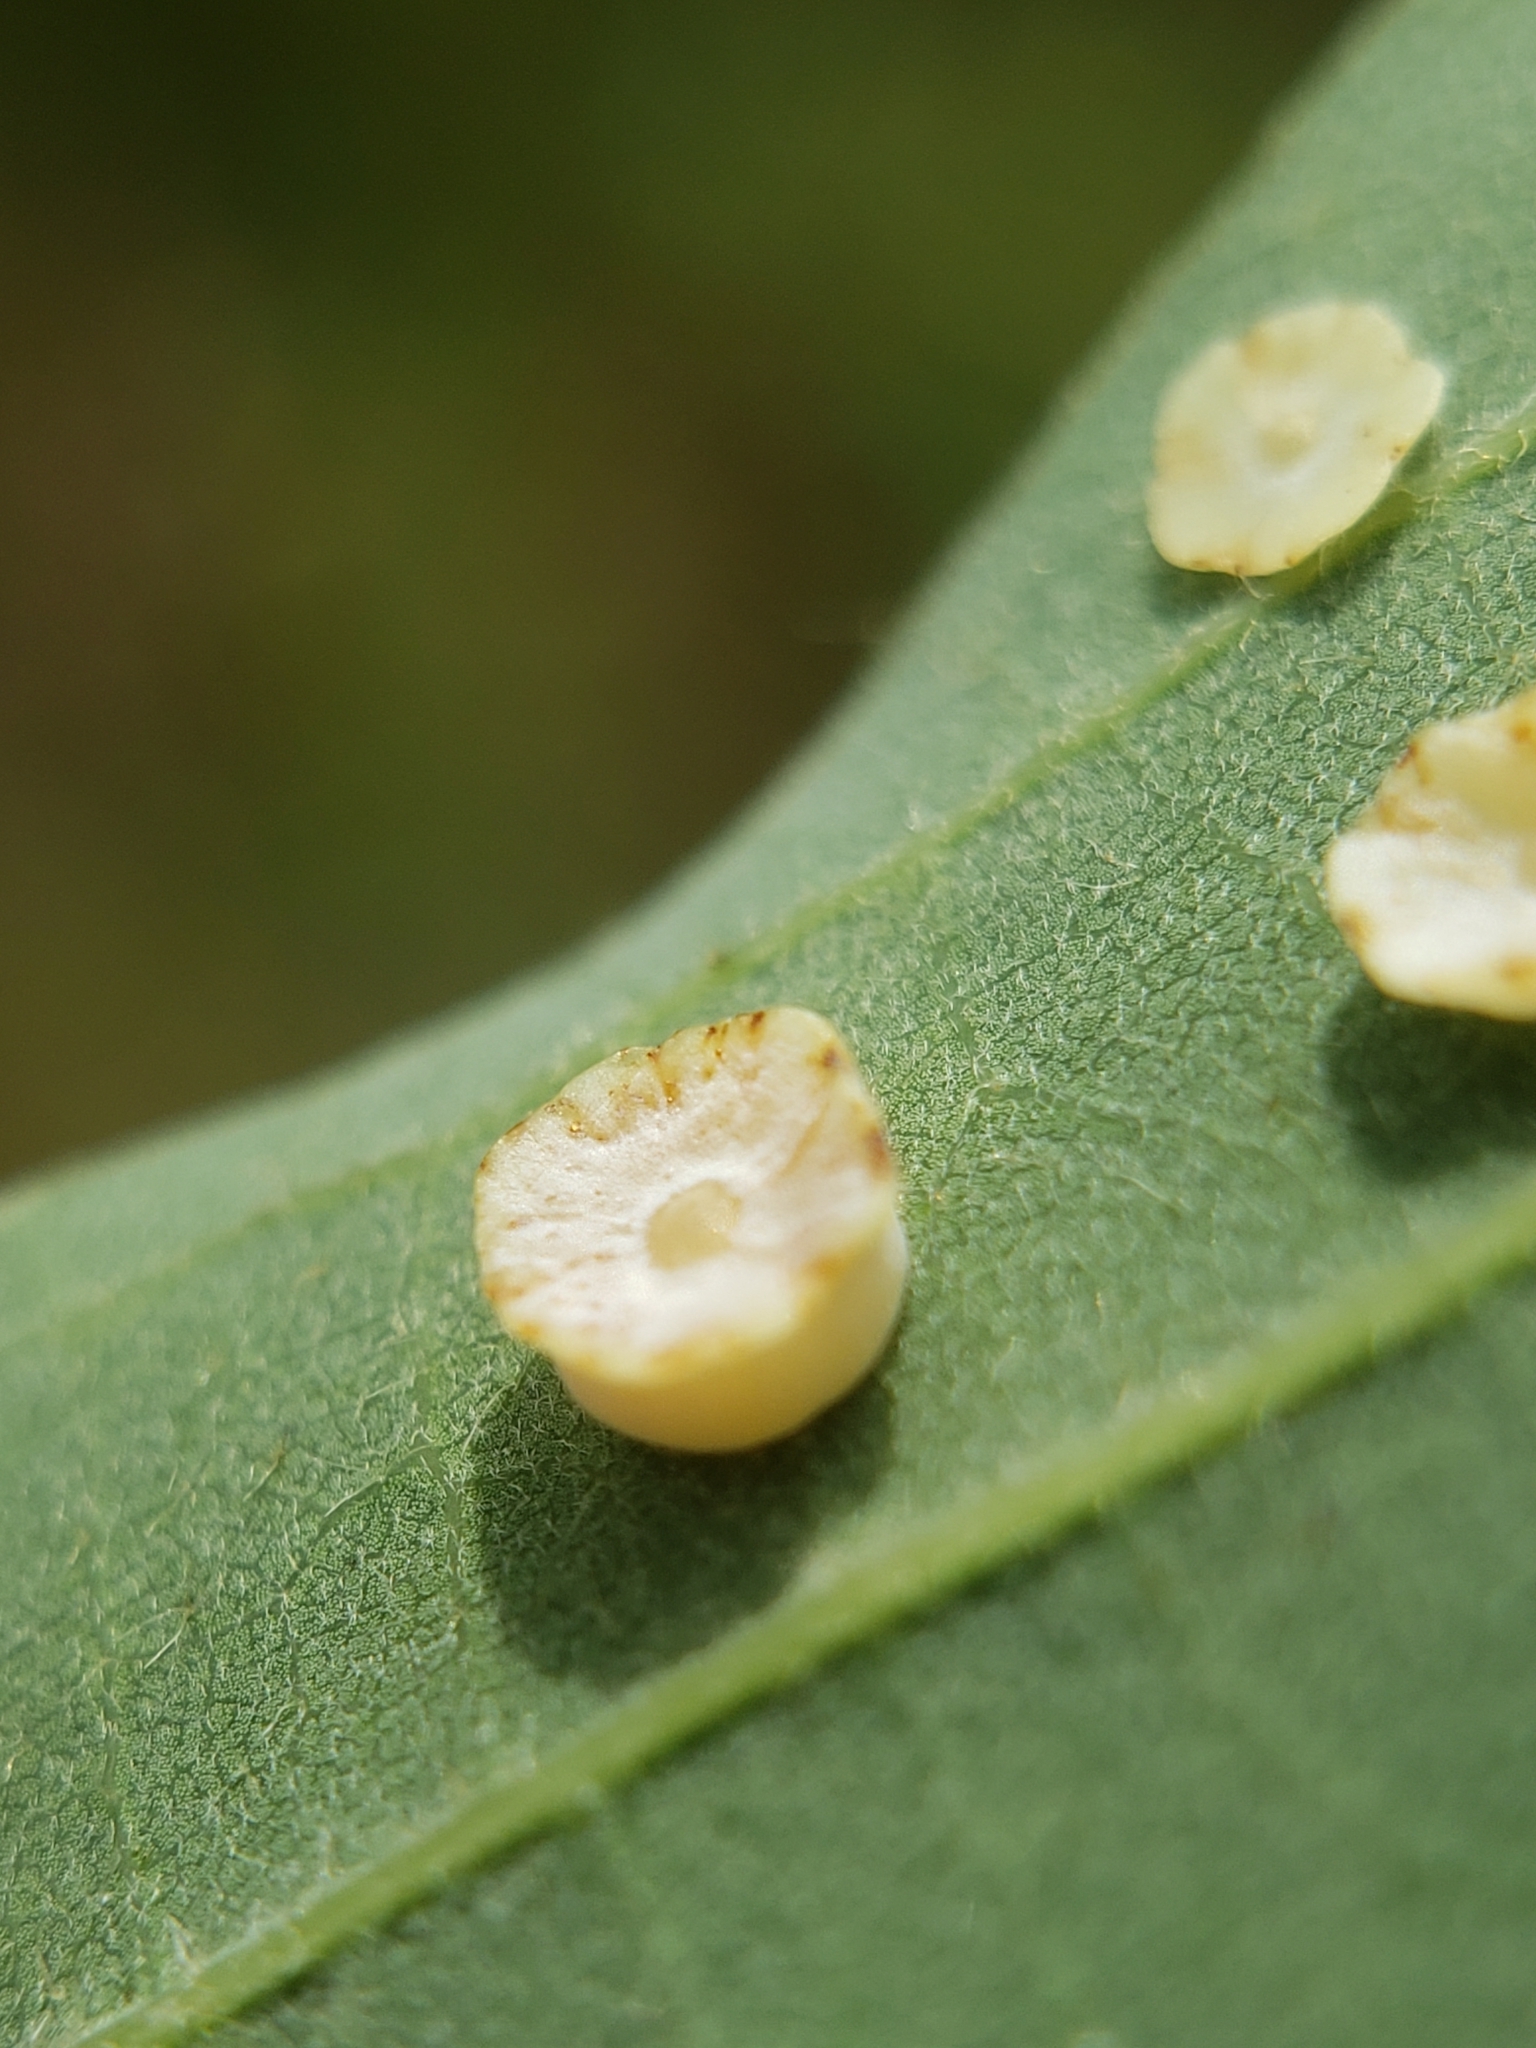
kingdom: Animalia
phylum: Arthropoda
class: Insecta
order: Hymenoptera
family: Cynipidae
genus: Phylloteras
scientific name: Phylloteras poculum
